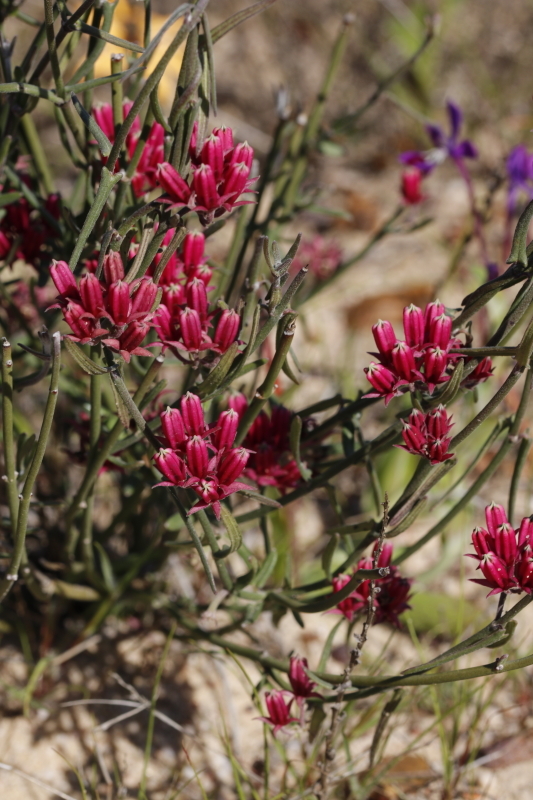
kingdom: Plantae
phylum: Tracheophyta
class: Magnoliopsida
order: Gentianales
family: Apocynaceae
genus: Microloma
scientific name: Microloma sagittatum
